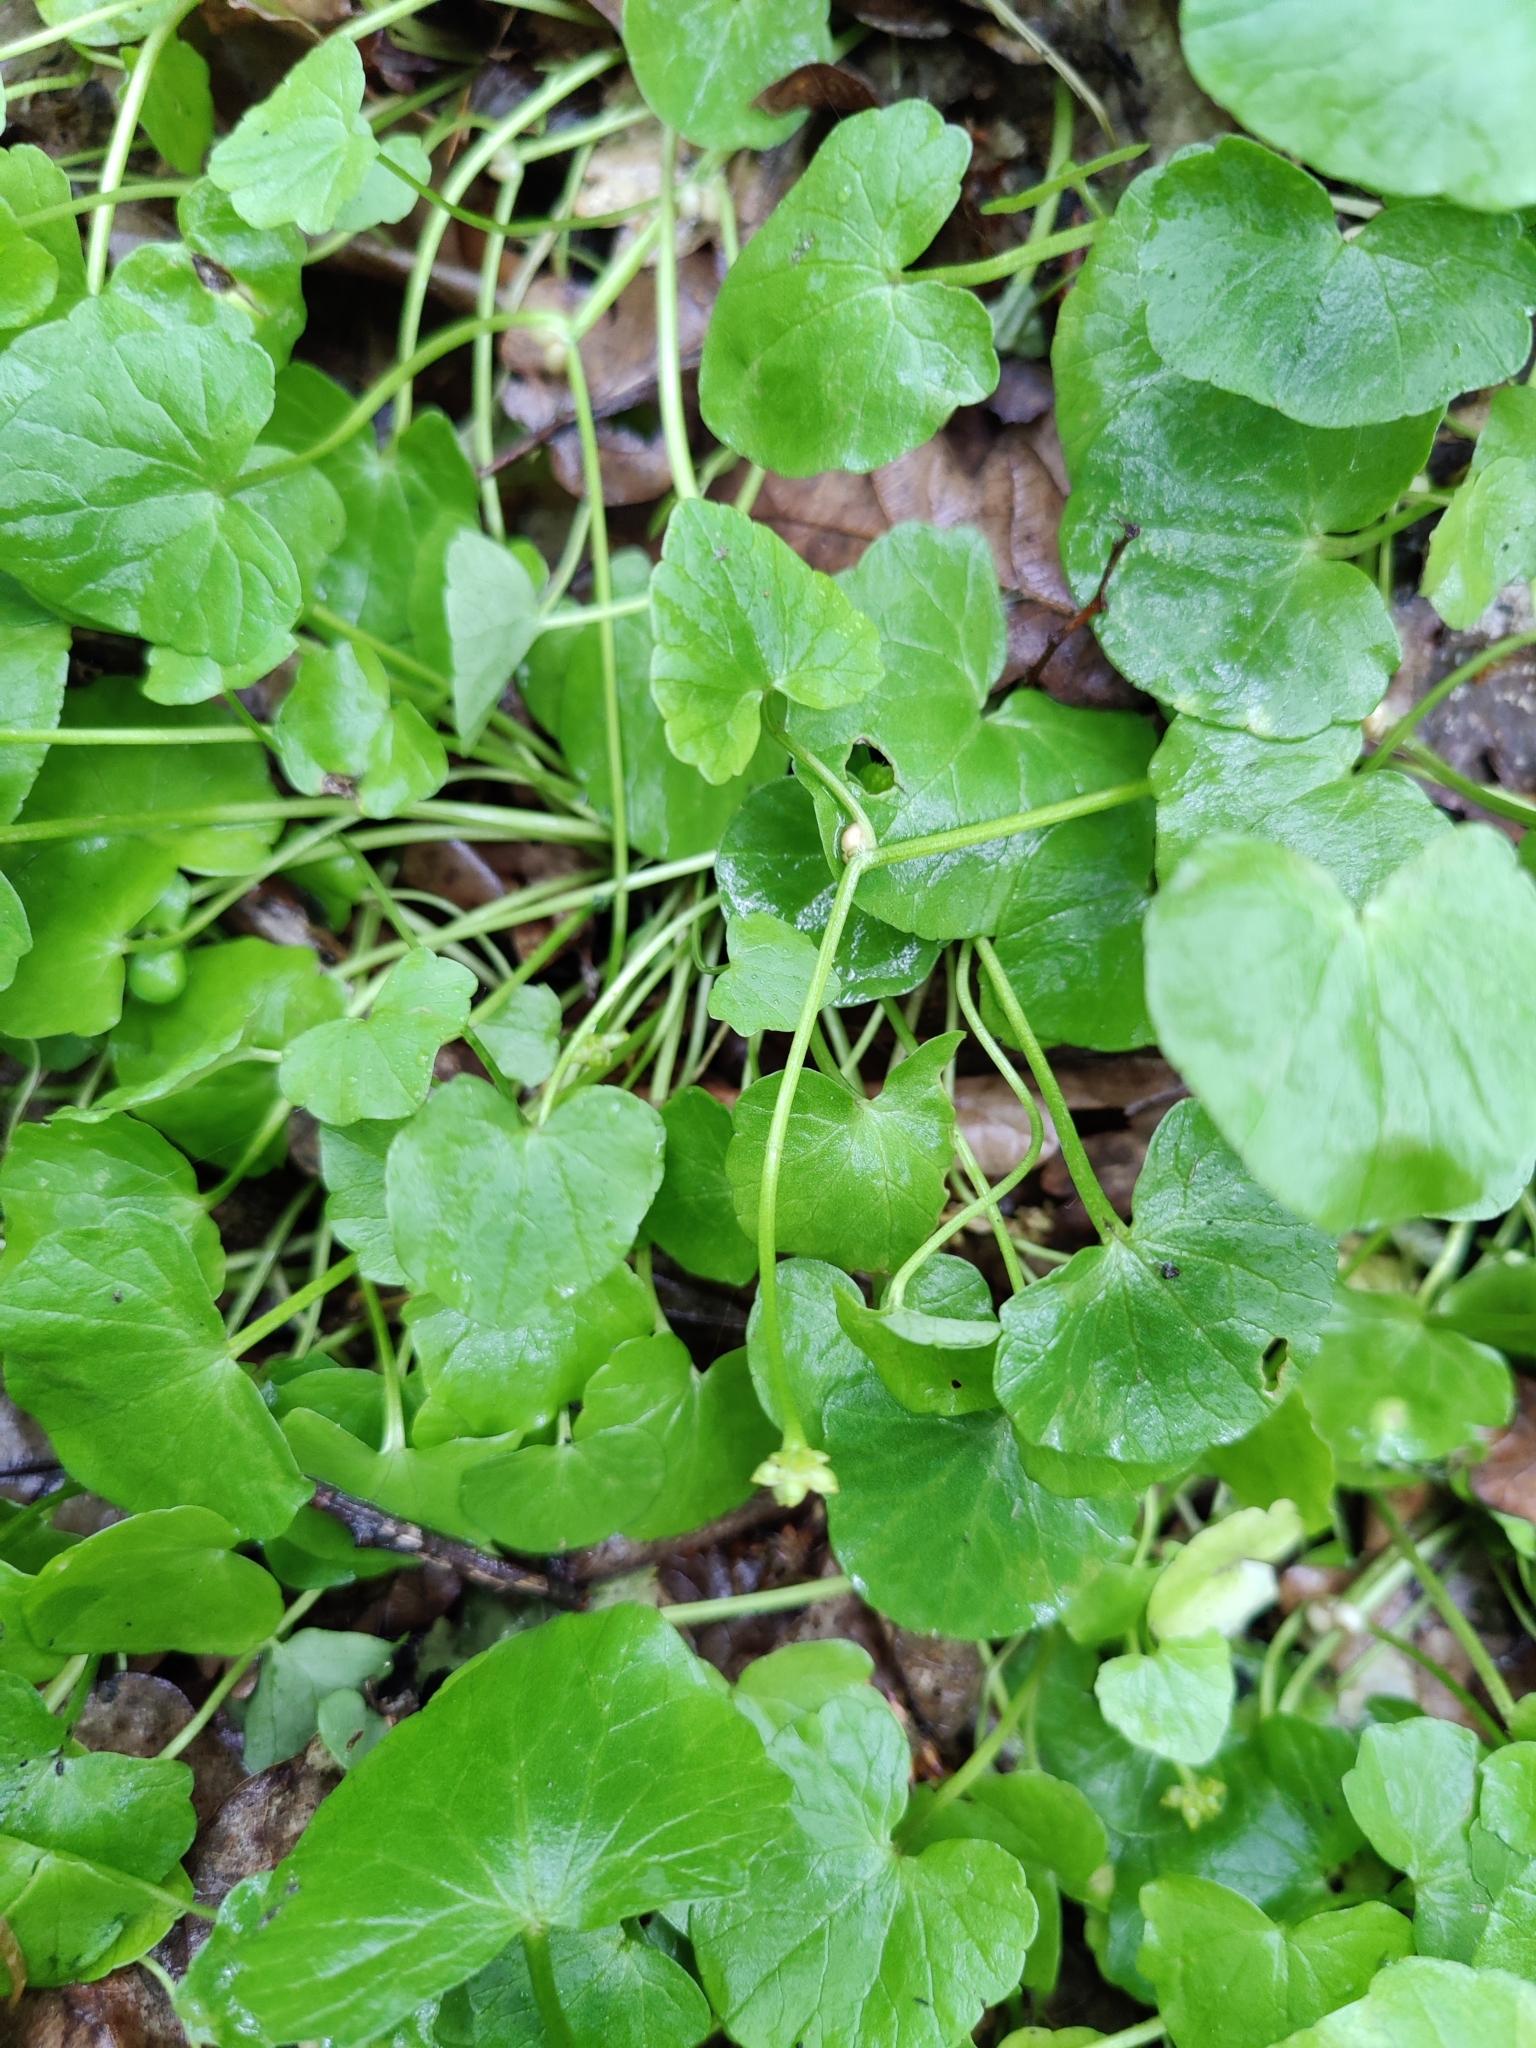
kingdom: Plantae
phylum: Tracheophyta
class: Magnoliopsida
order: Ranunculales
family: Ranunculaceae
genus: Ficaria
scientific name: Ficaria verna
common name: Lesser celandine
